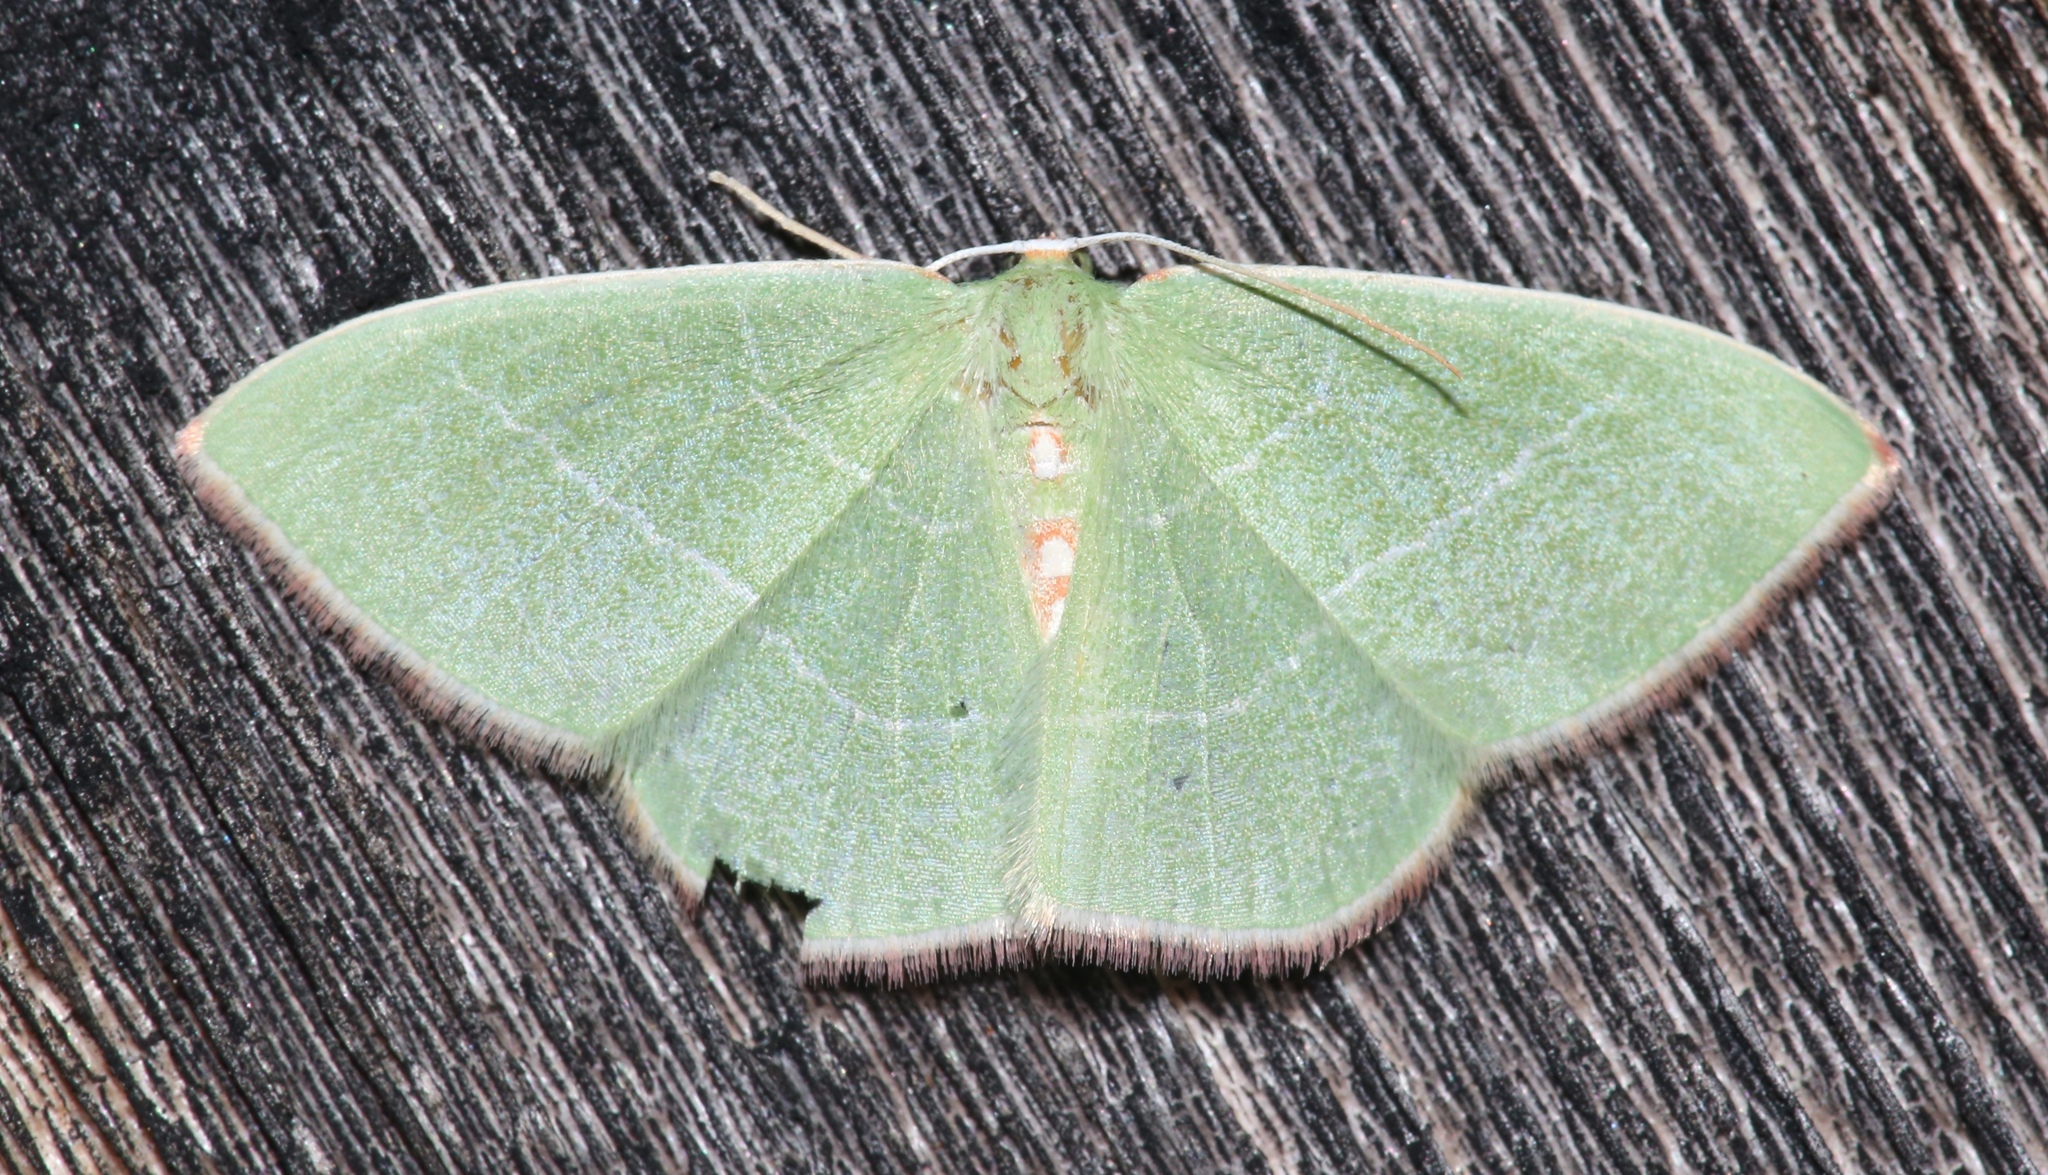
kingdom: Animalia
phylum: Arthropoda
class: Insecta
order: Lepidoptera
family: Geometridae
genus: Nemoria
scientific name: Nemoria rubrifrontaria
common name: Red-fronted emerald
